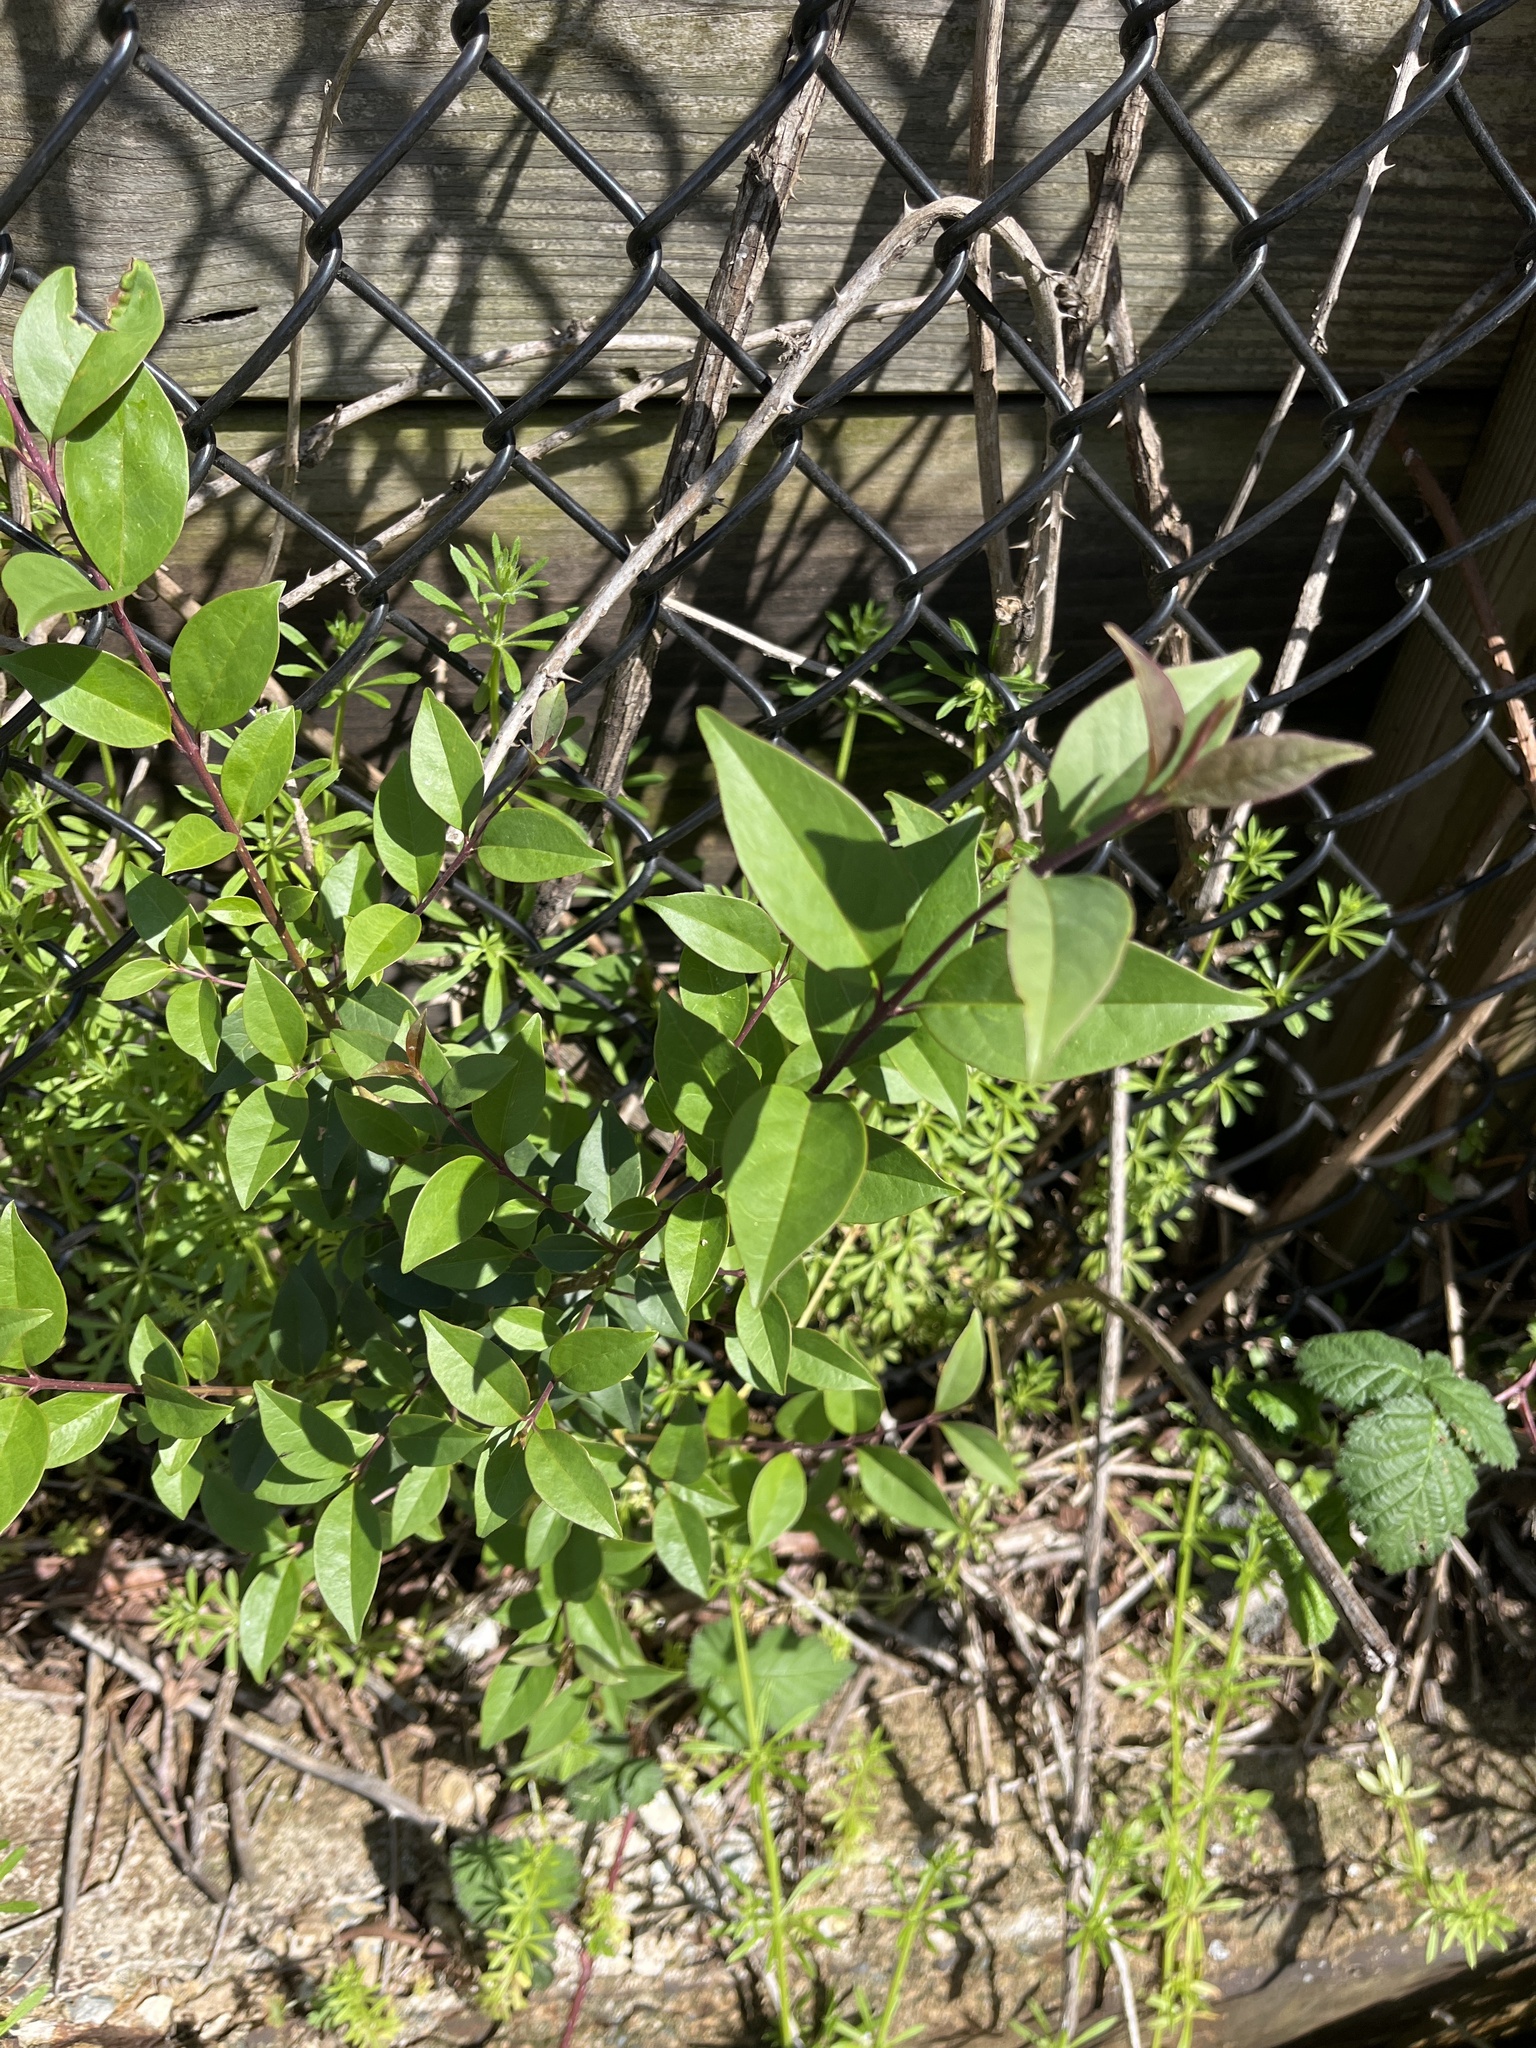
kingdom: Plantae
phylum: Tracheophyta
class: Magnoliopsida
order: Lamiales
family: Oleaceae
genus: Ligustrum
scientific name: Ligustrum lucidum
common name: Glossy privet
